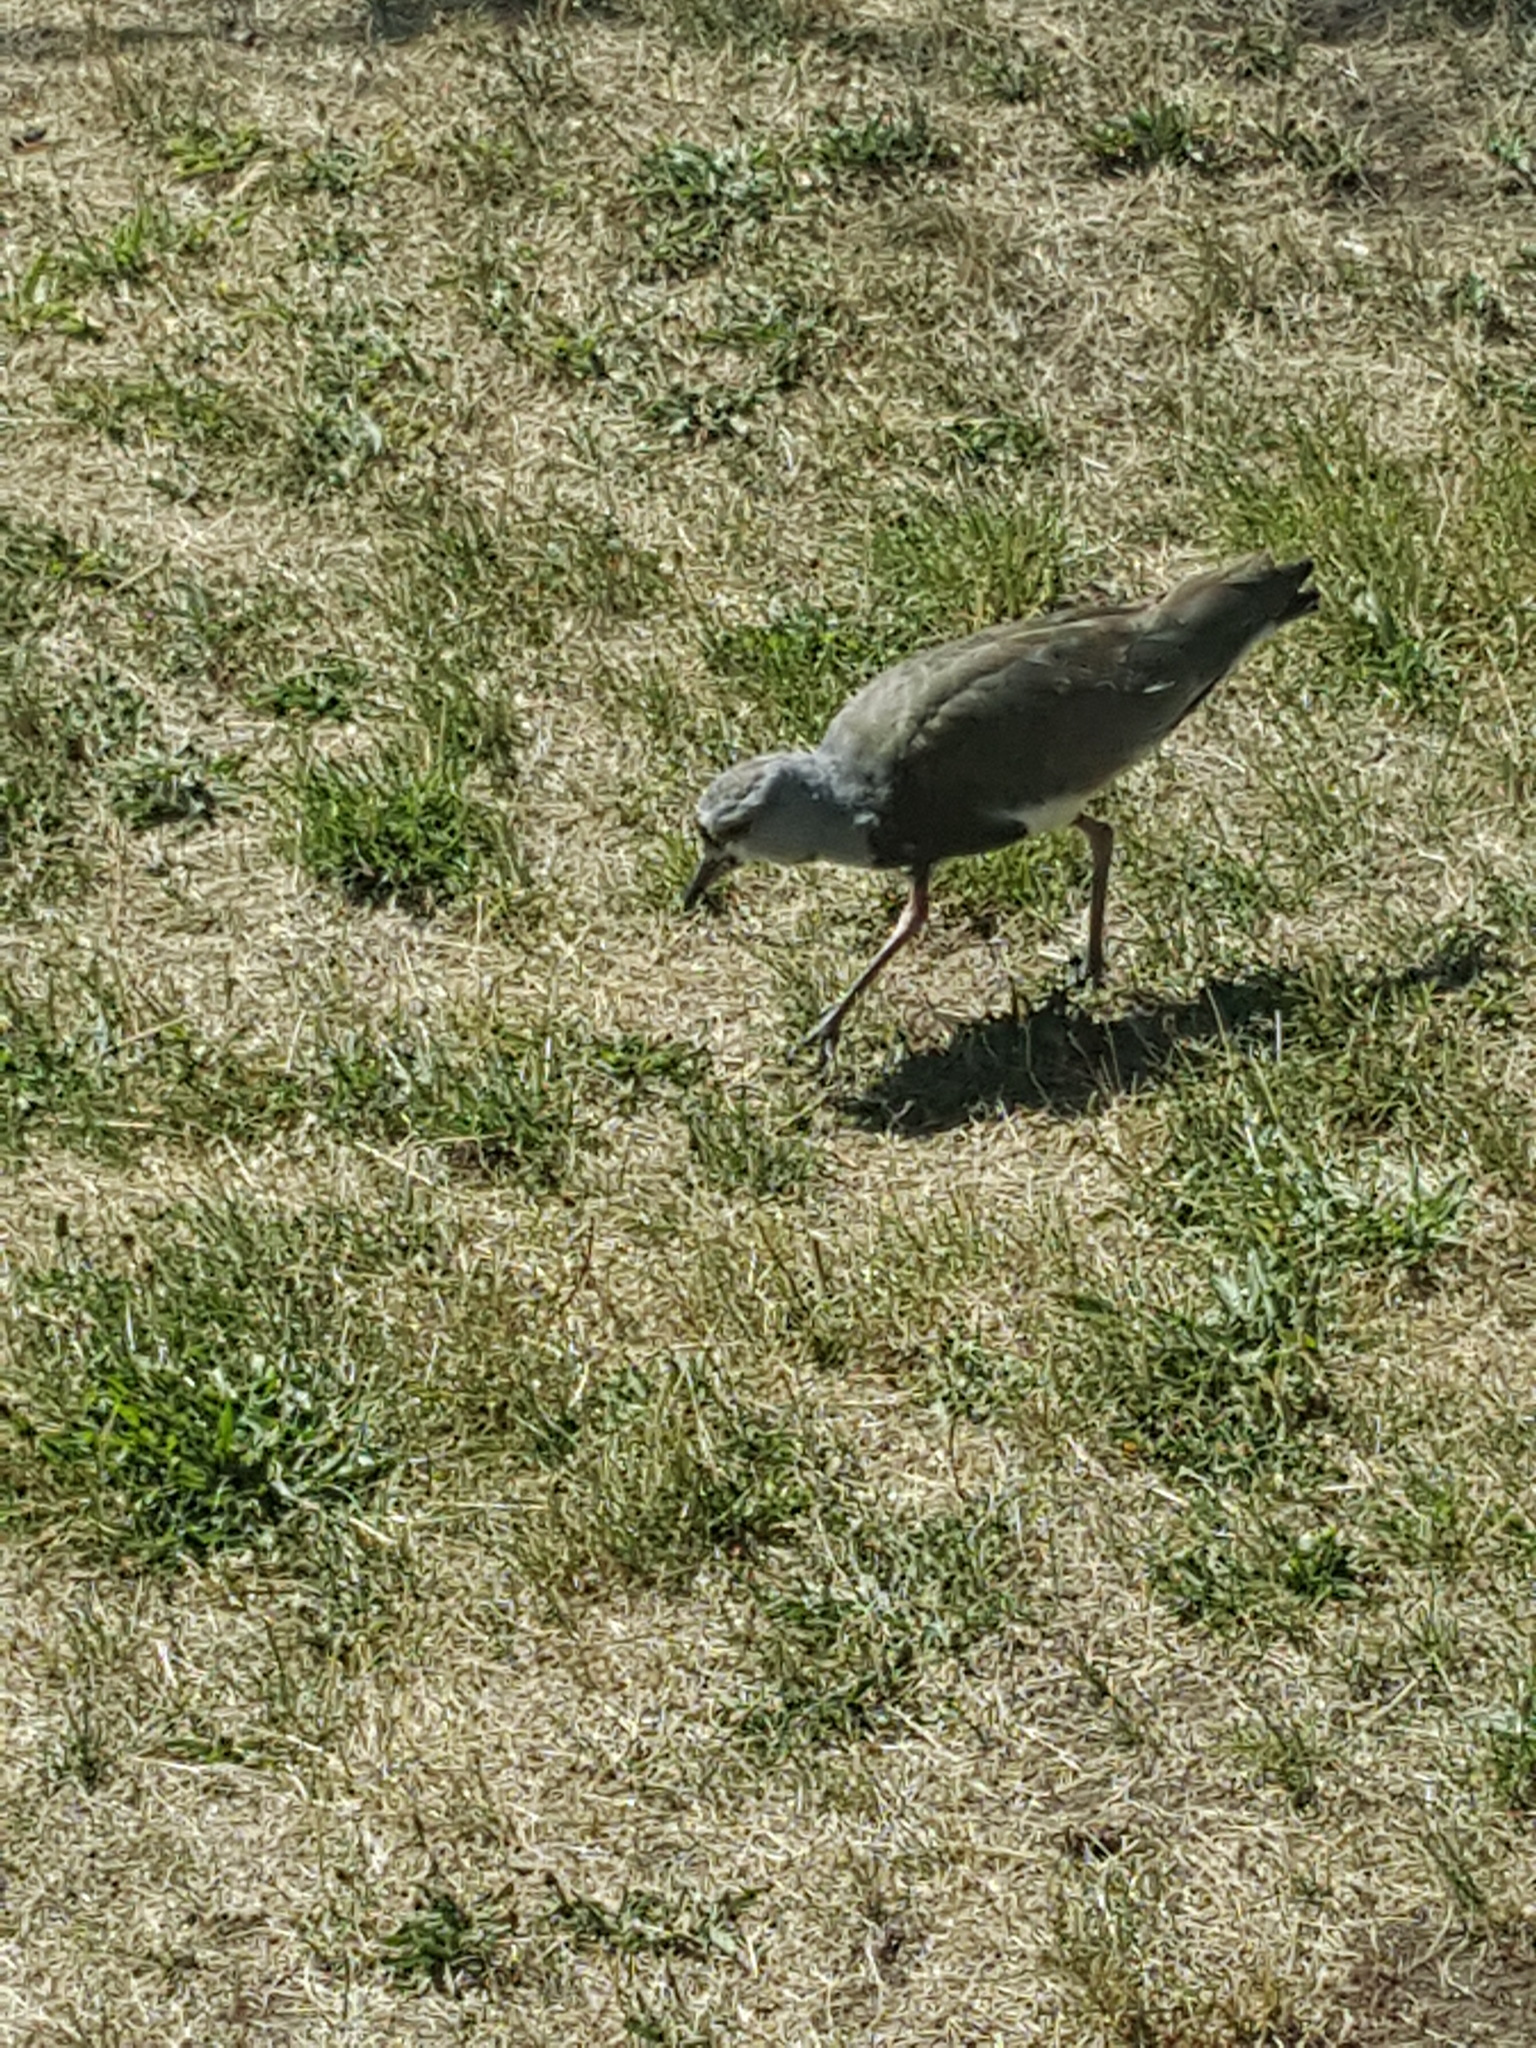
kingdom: Animalia
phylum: Chordata
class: Aves
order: Charadriiformes
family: Charadriidae
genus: Vanellus
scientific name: Vanellus chilensis
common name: Southern lapwing
